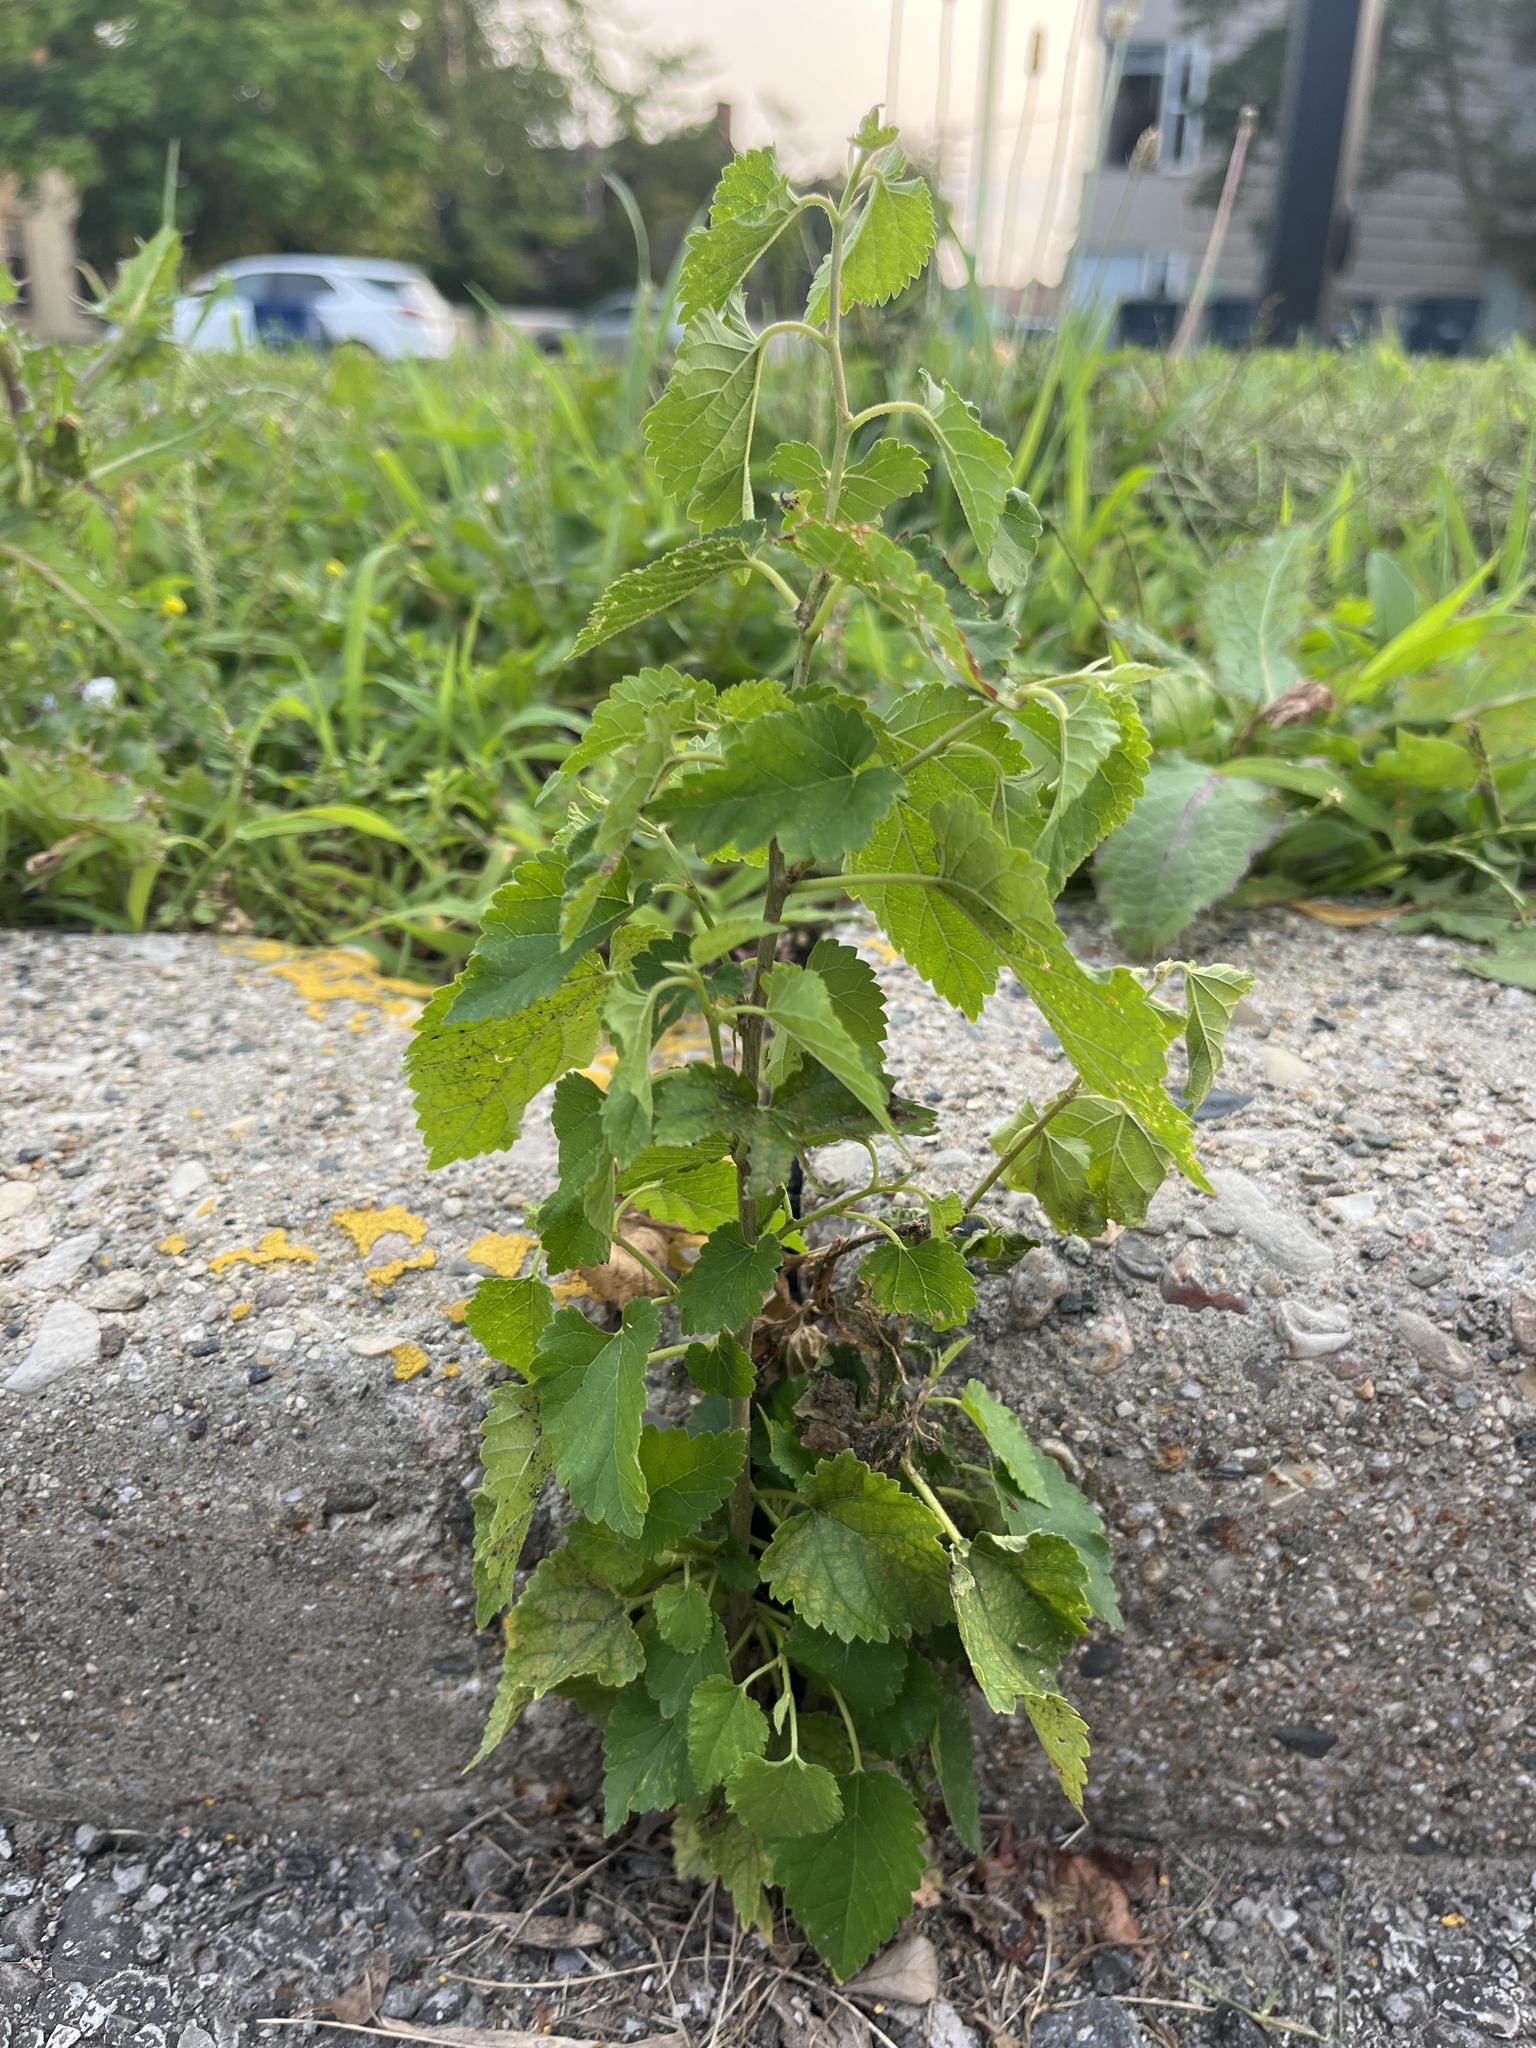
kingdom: Plantae
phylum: Tracheophyta
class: Magnoliopsida
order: Rosales
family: Moraceae
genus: Morus
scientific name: Morus alba
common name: White mulberry
